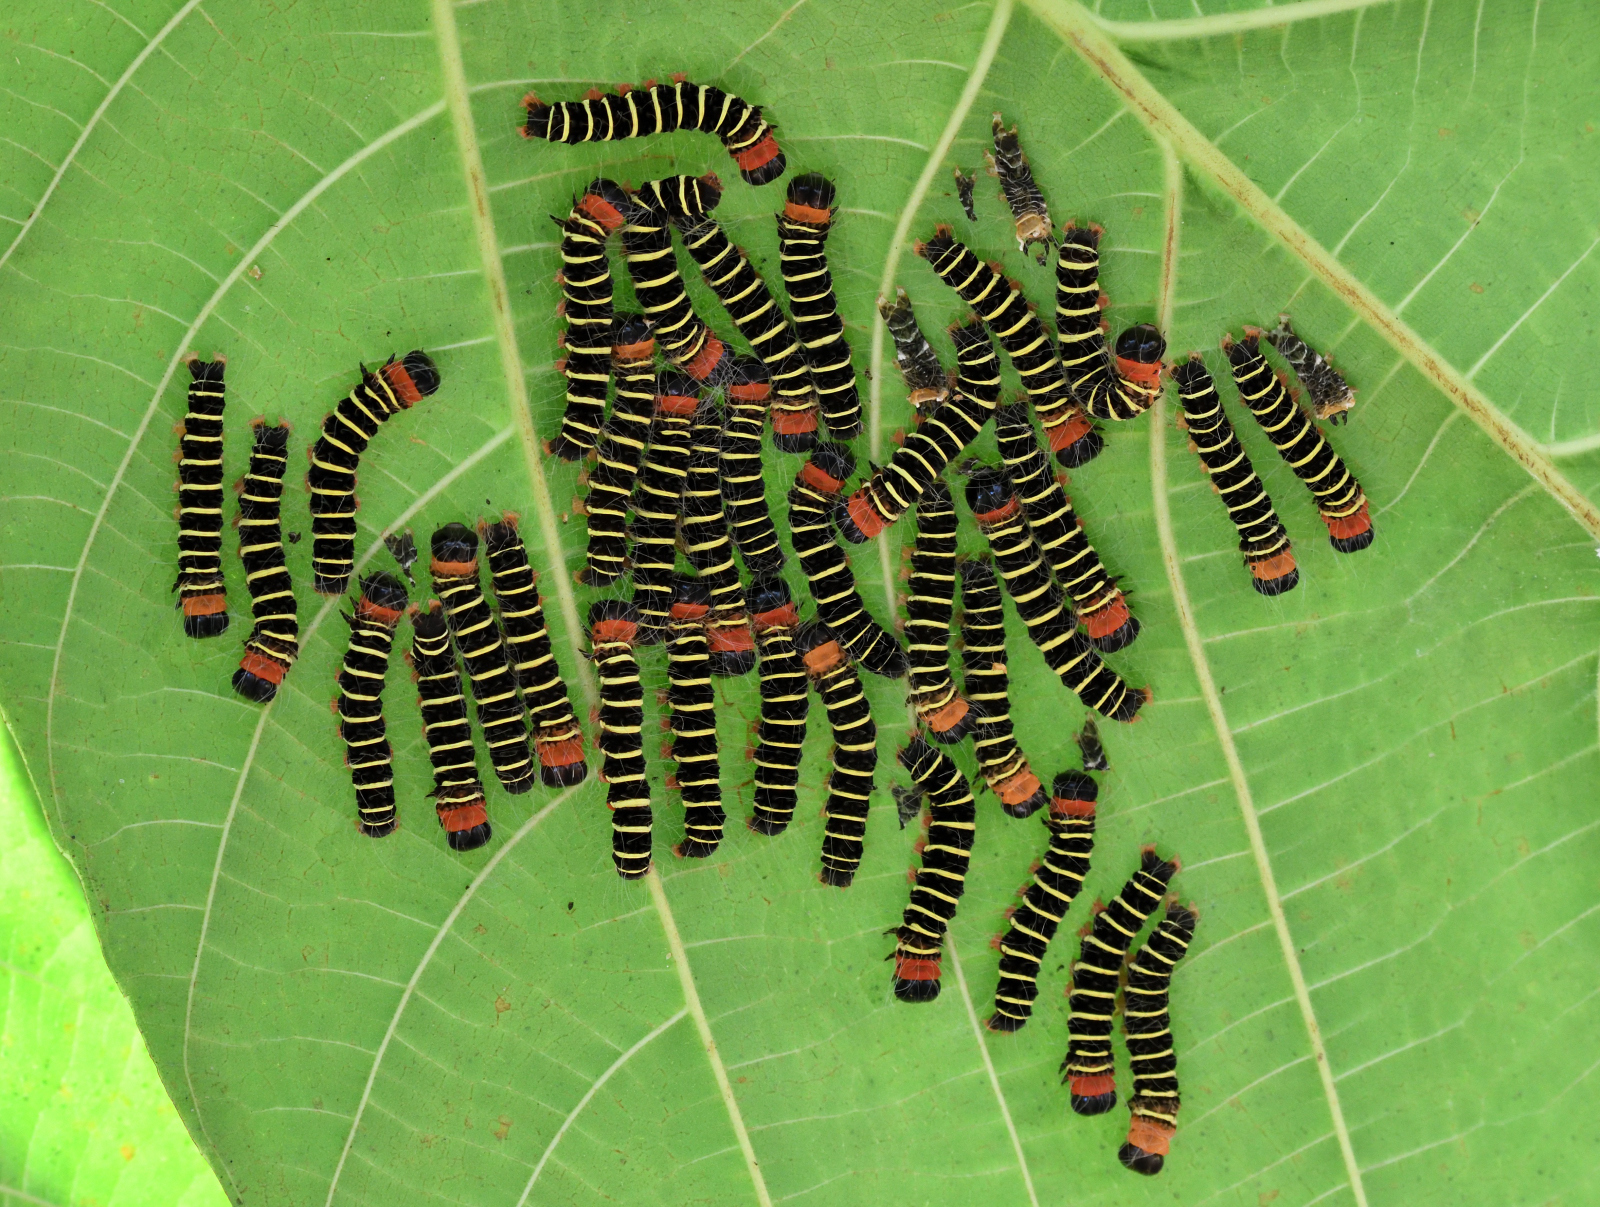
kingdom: Animalia
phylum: Arthropoda
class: Insecta
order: Lepidoptera
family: Erebidae
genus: Asota
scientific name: Asota plana
